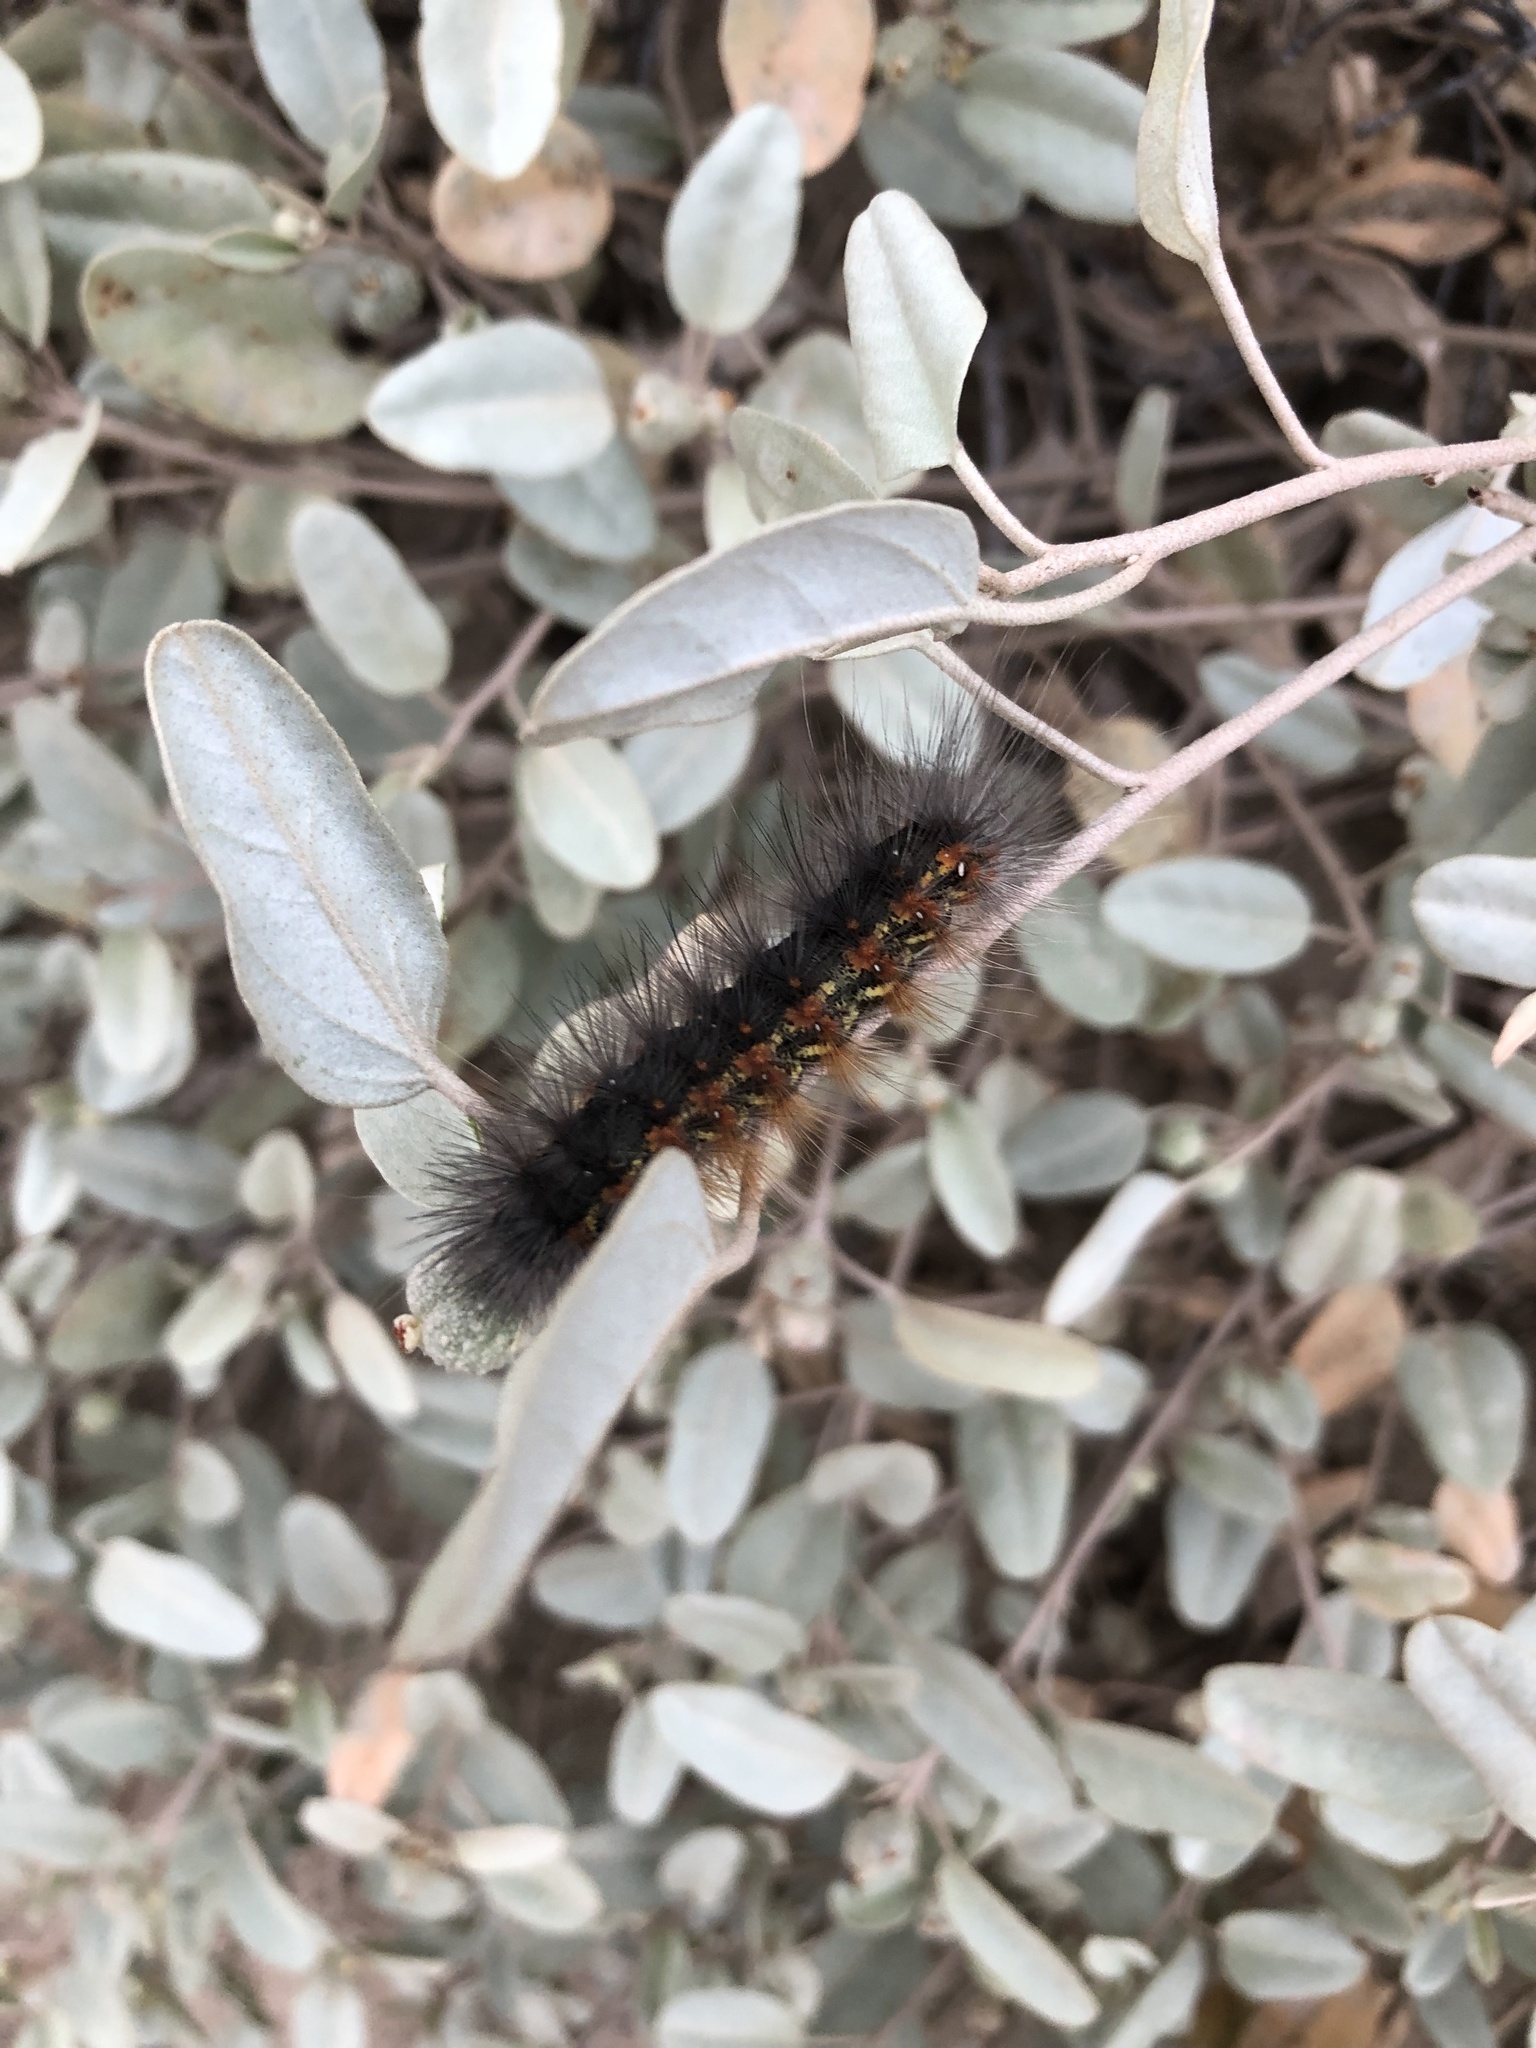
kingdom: Animalia
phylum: Arthropoda
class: Insecta
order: Lepidoptera
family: Erebidae
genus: Estigmene
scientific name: Estigmene acrea
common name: Salt marsh moth
